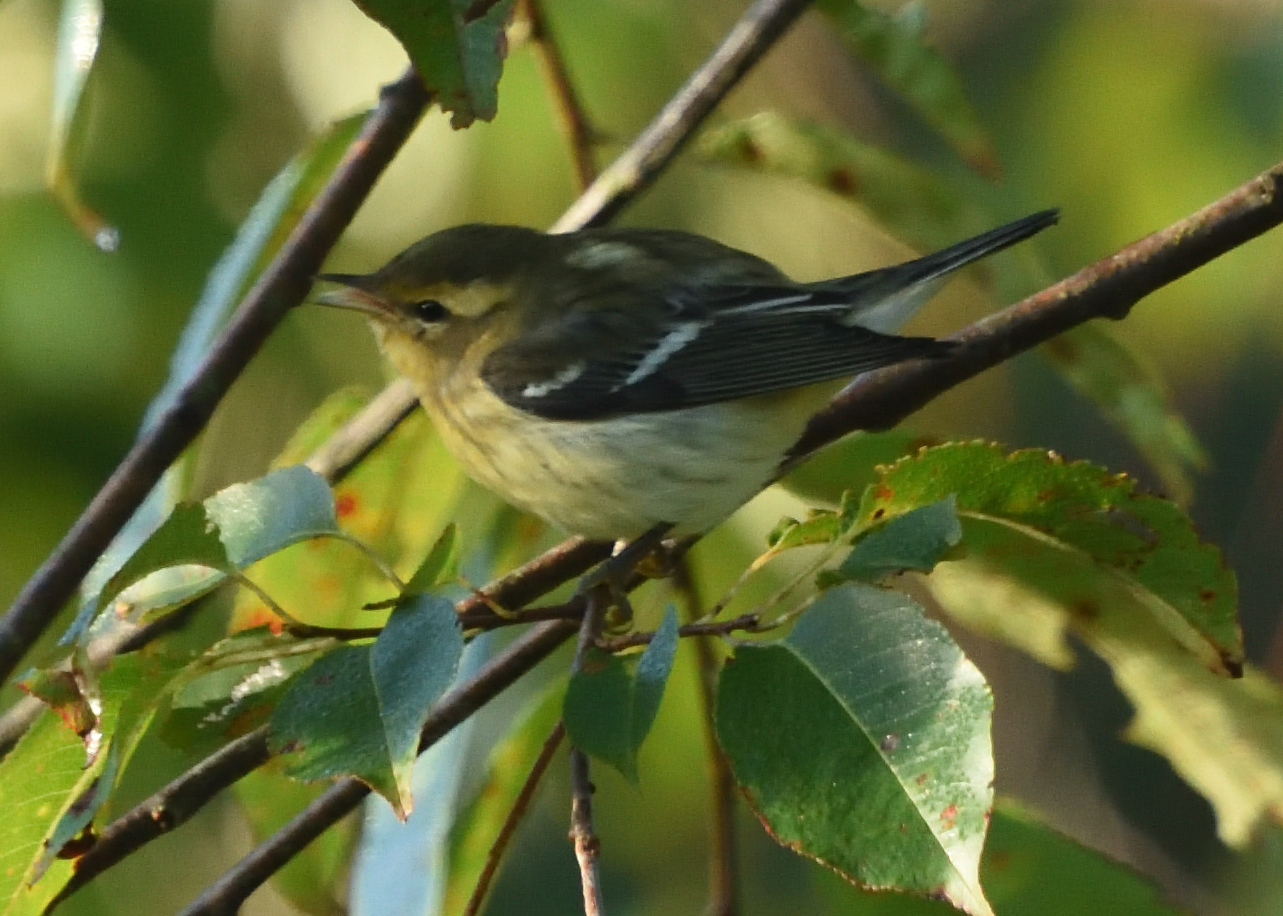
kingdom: Animalia
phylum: Chordata
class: Aves
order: Passeriformes
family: Parulidae
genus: Setophaga
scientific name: Setophaga fusca
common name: Blackburnian warbler
